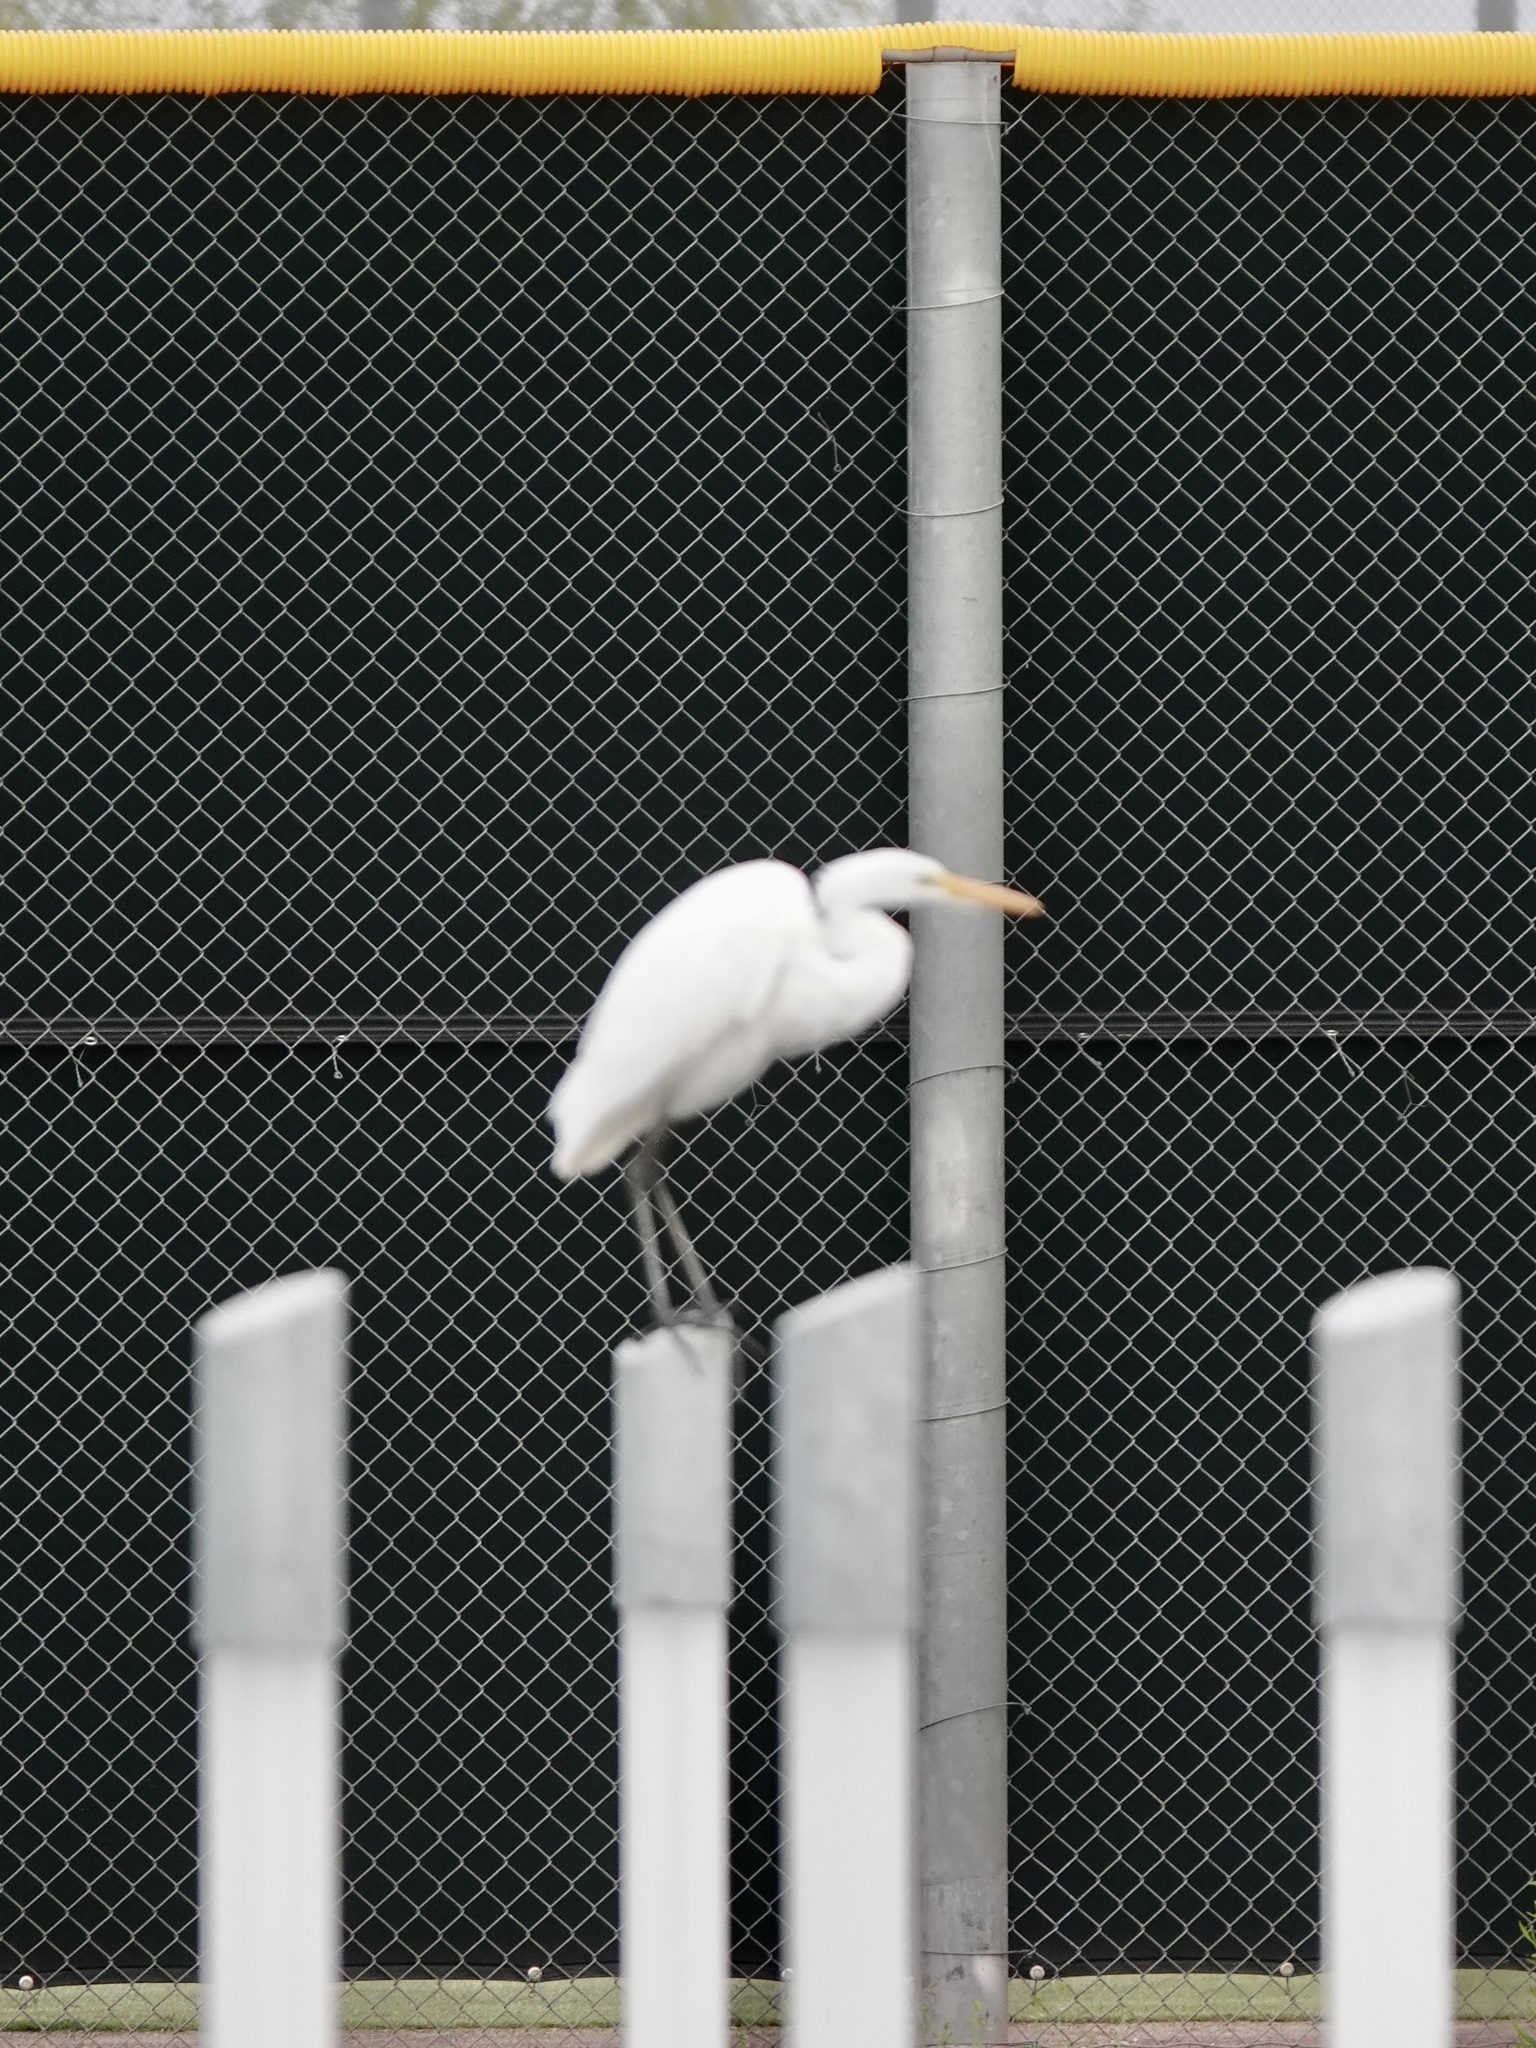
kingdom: Animalia
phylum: Chordata
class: Aves
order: Pelecaniformes
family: Ardeidae
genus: Ardea
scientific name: Ardea alba
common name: Great egret
